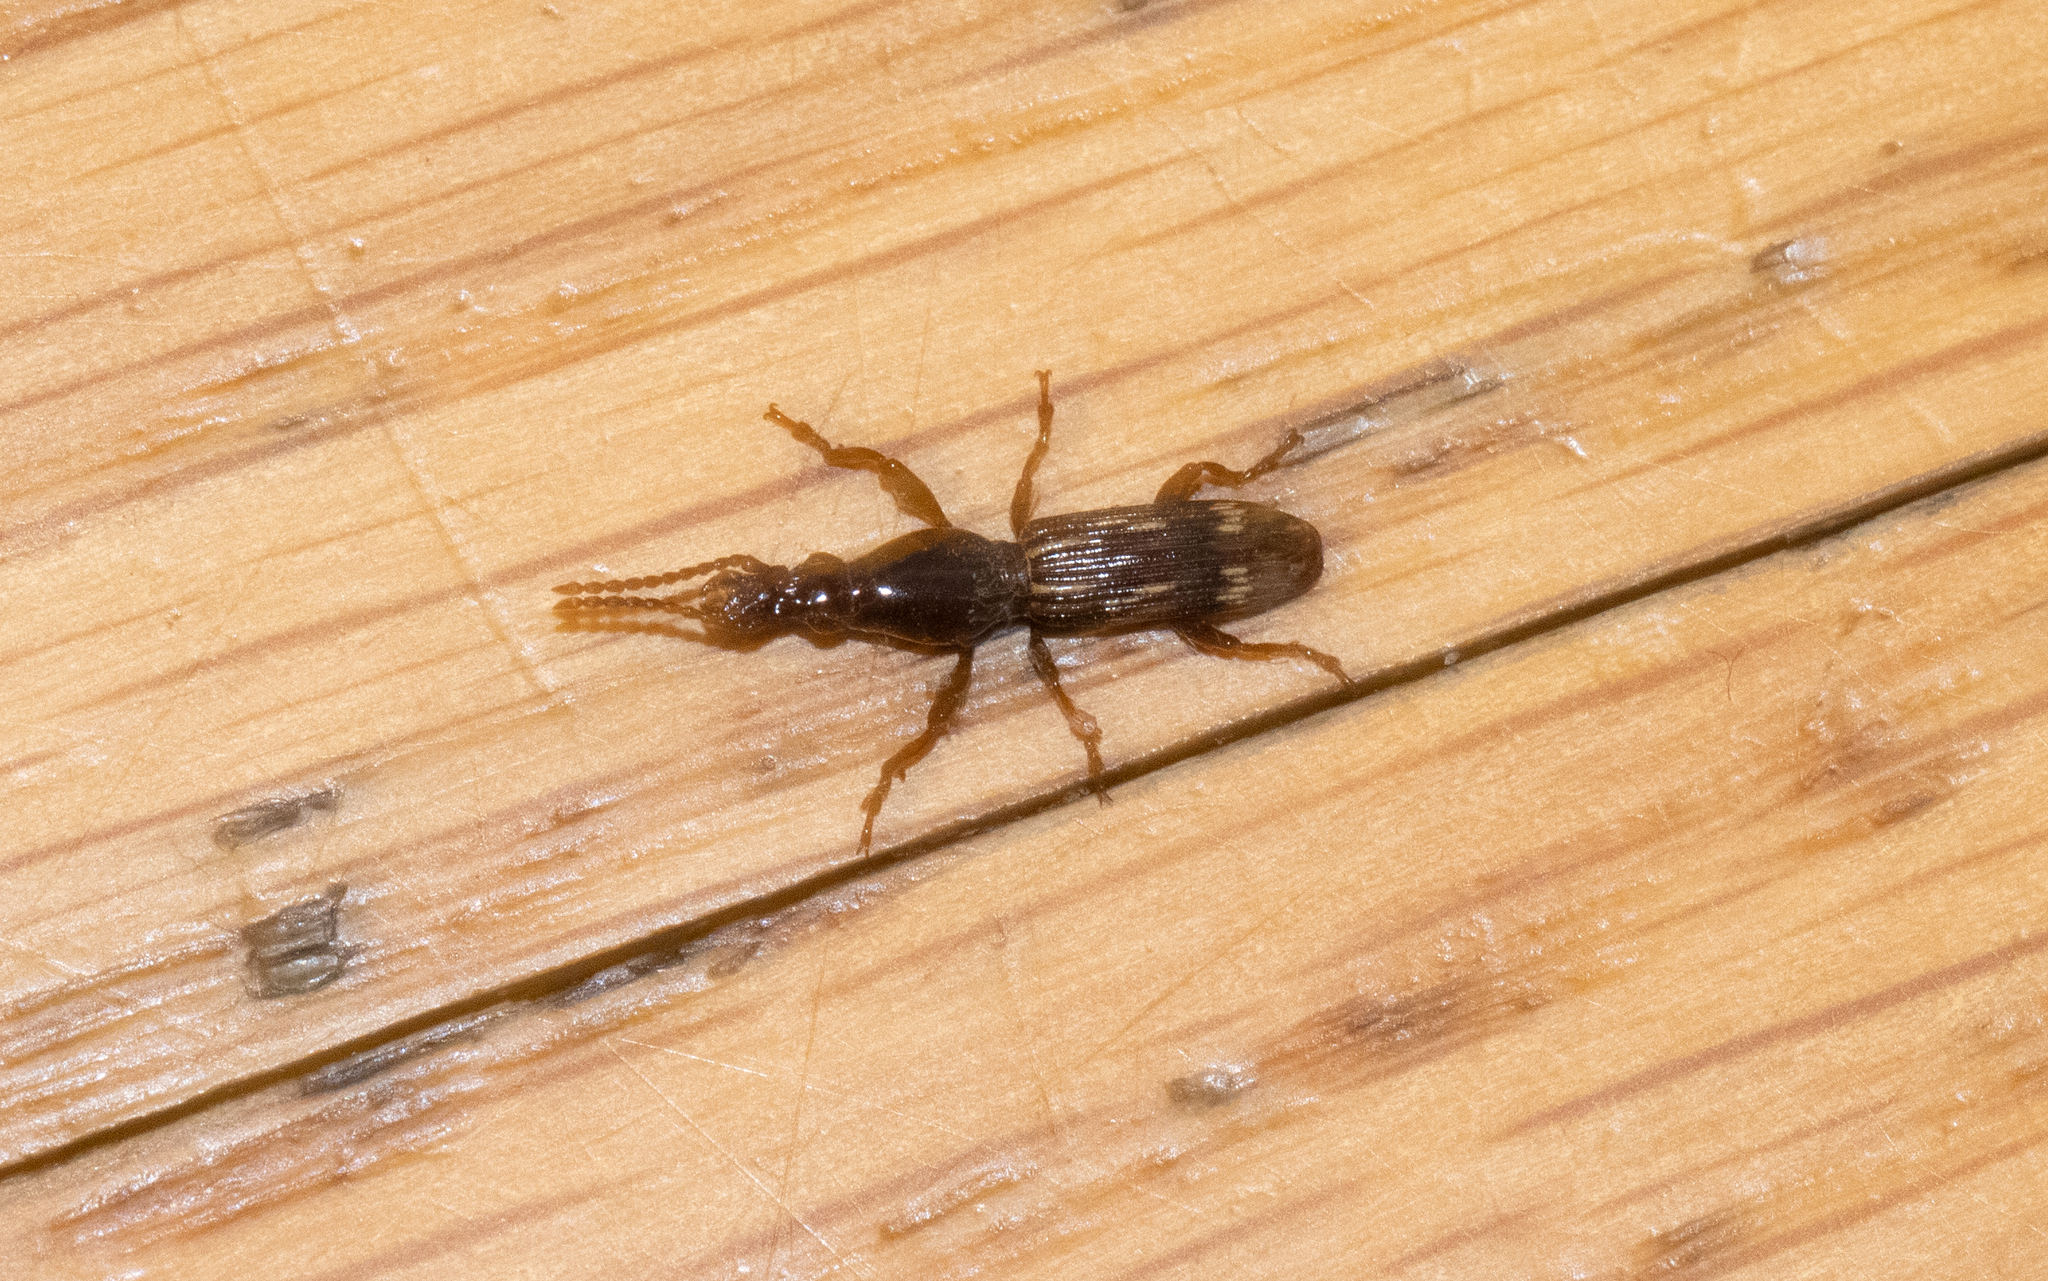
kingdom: Animalia
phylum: Arthropoda
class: Insecta
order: Coleoptera
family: Brentidae
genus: Arrenodes
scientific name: Arrenodes minutus
